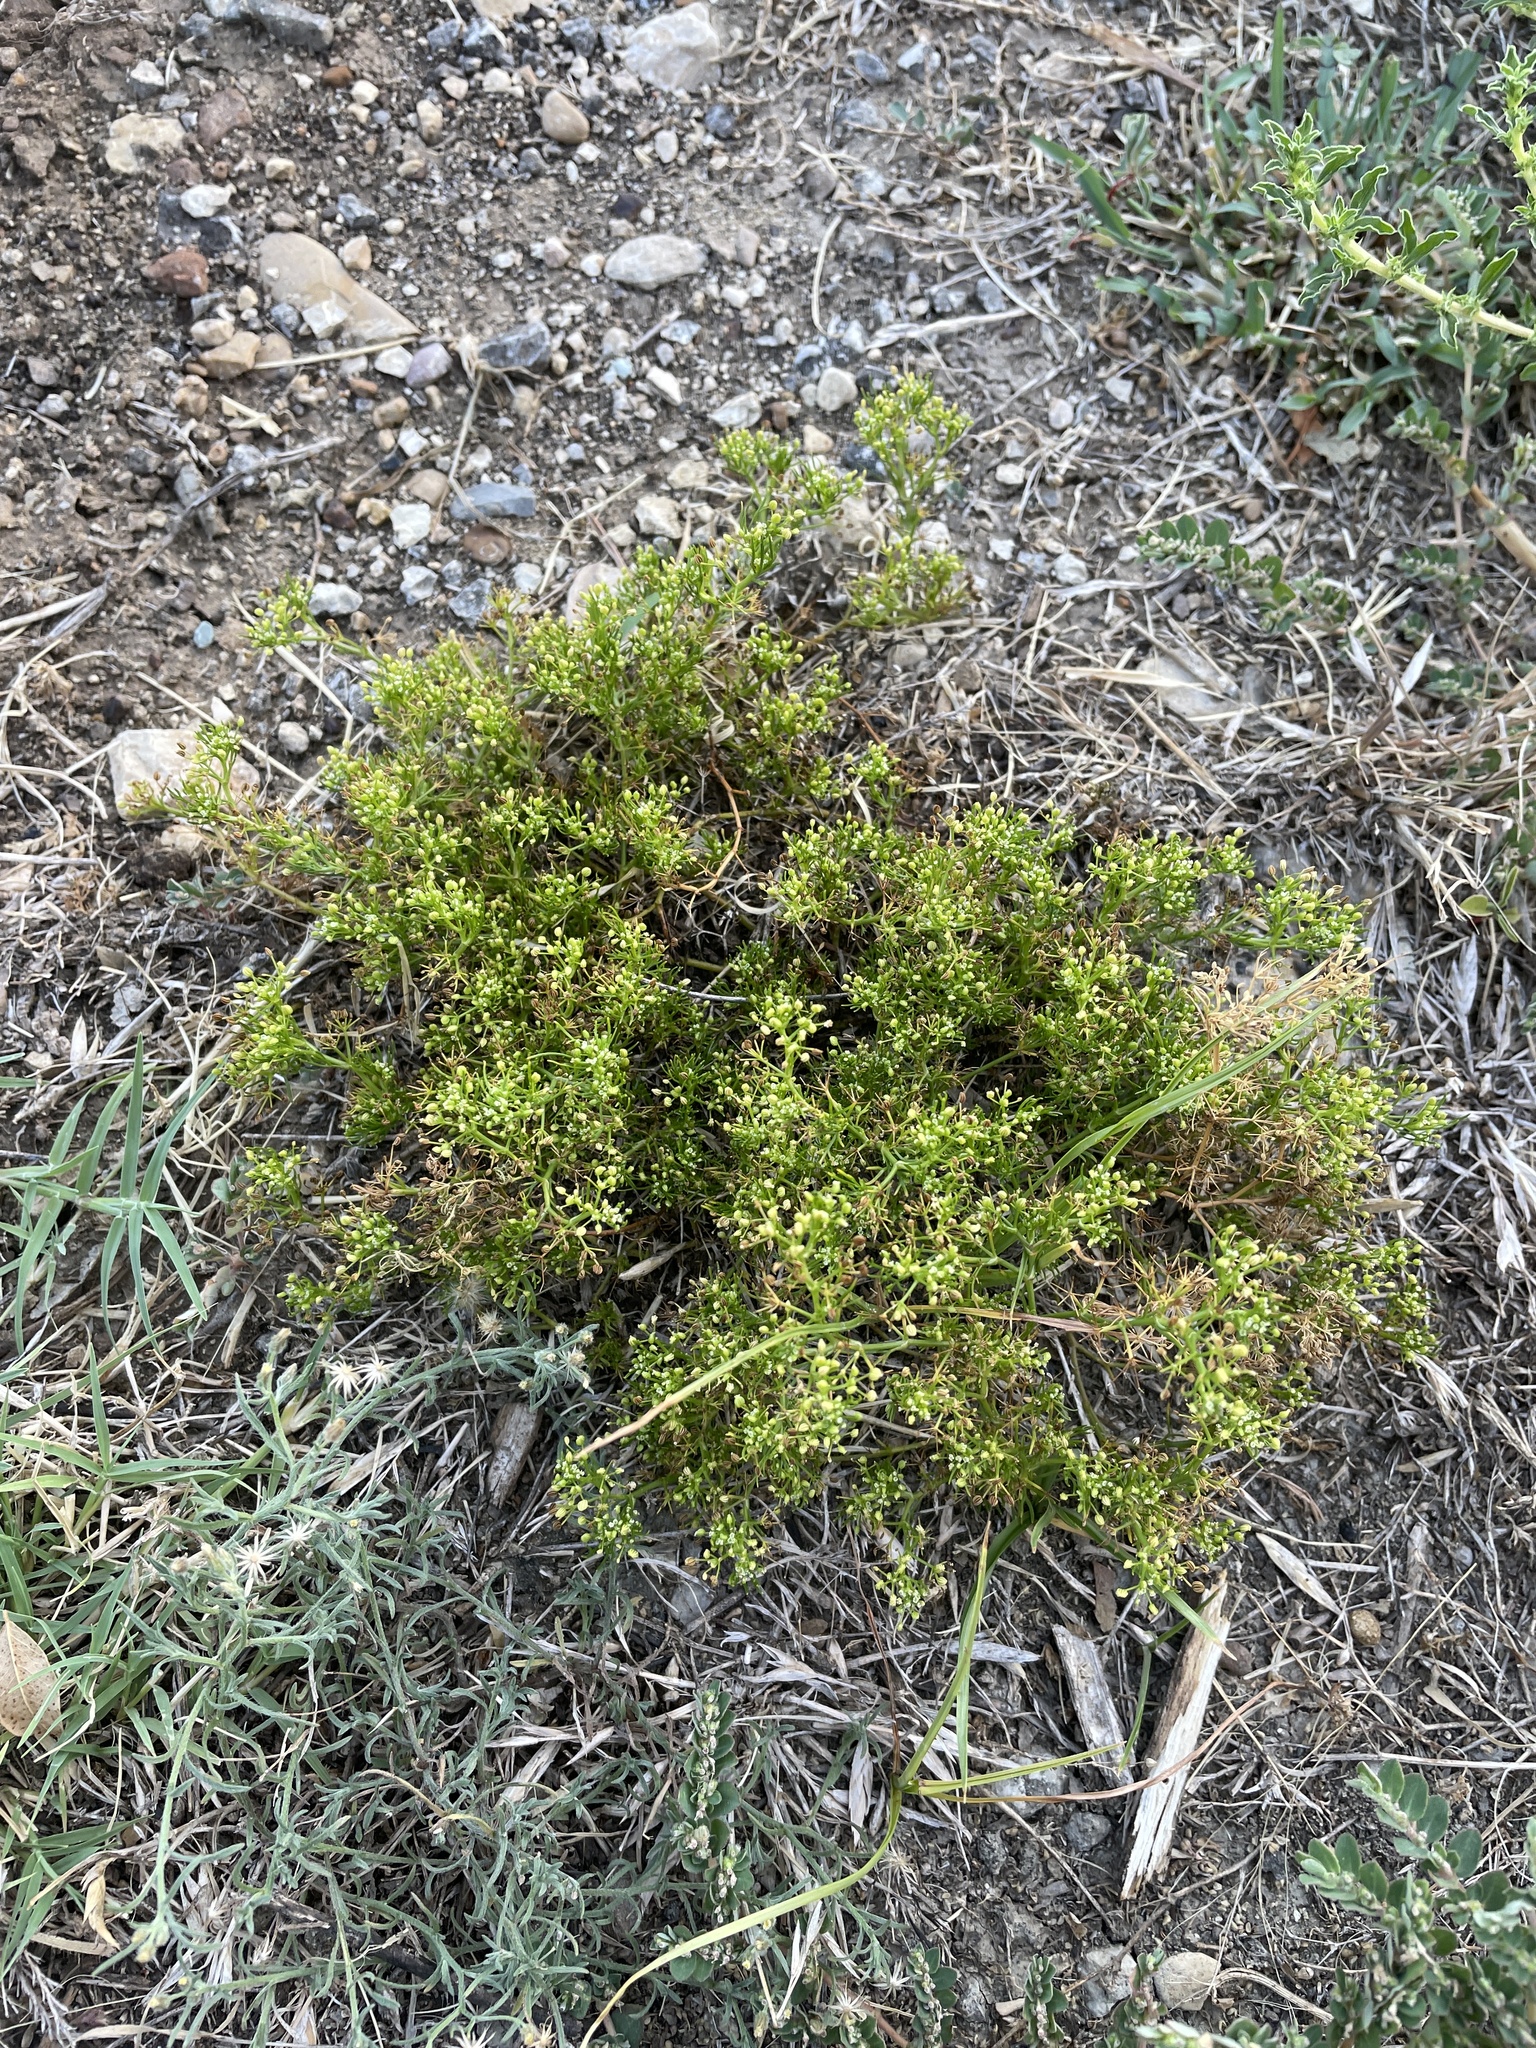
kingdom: Plantae
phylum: Tracheophyta
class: Magnoliopsida
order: Apiales
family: Apiaceae
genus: Cyclospermum
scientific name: Cyclospermum leptophyllum
